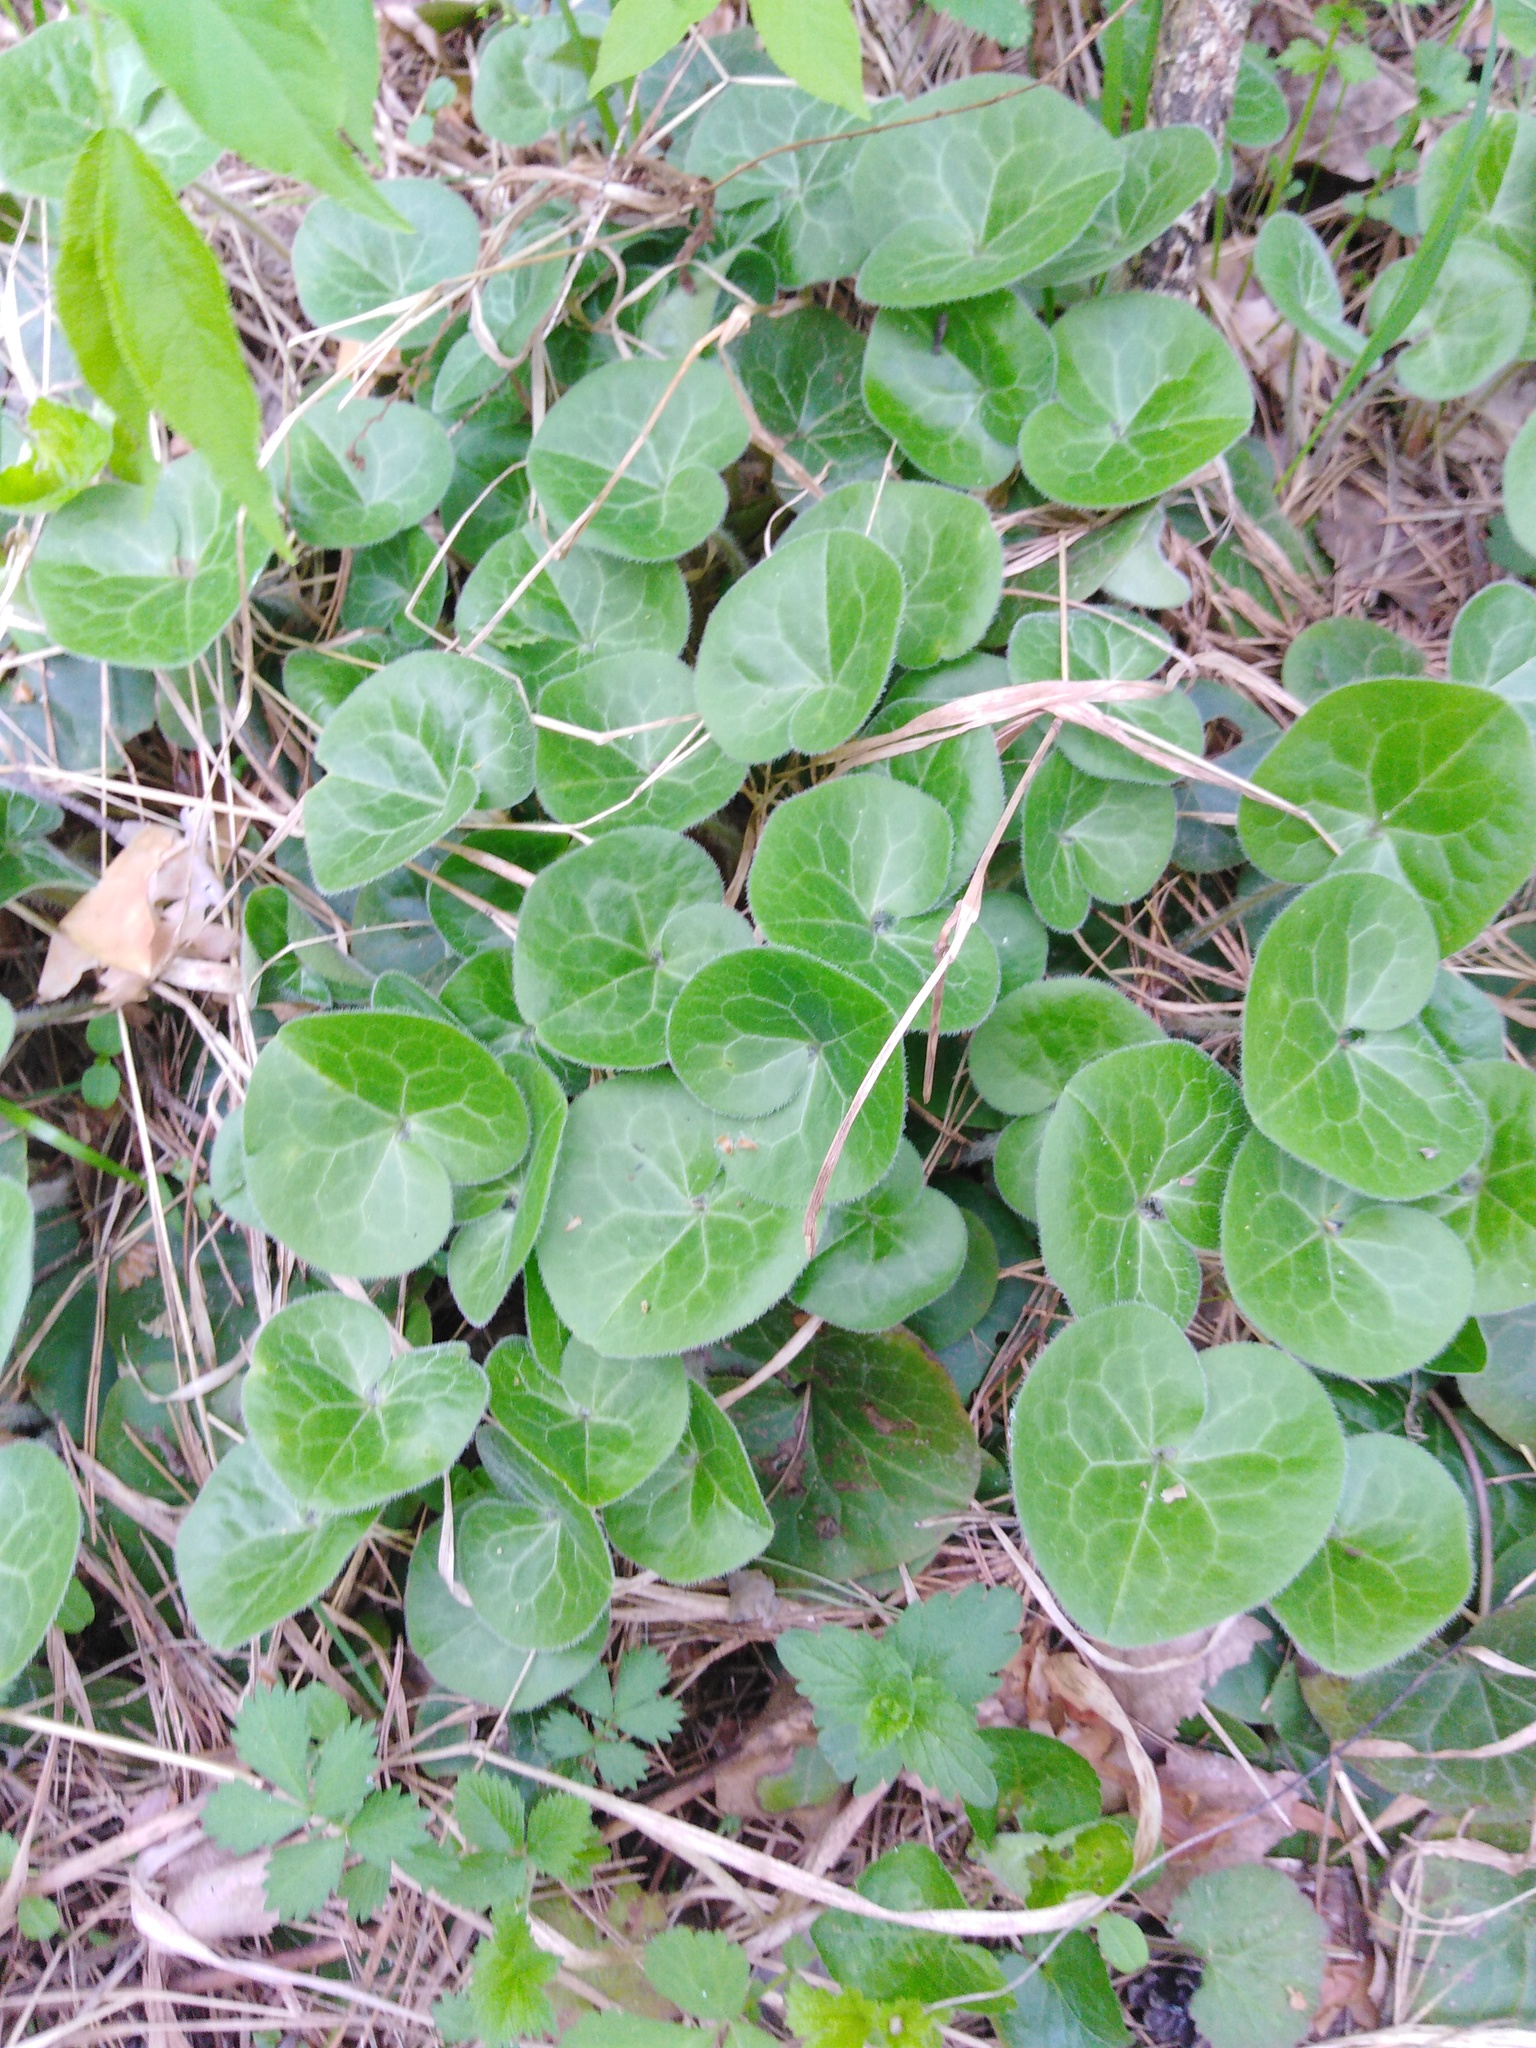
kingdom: Plantae
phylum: Tracheophyta
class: Magnoliopsida
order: Piperales
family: Aristolochiaceae
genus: Asarum
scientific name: Asarum europaeum
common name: Asarabacca
